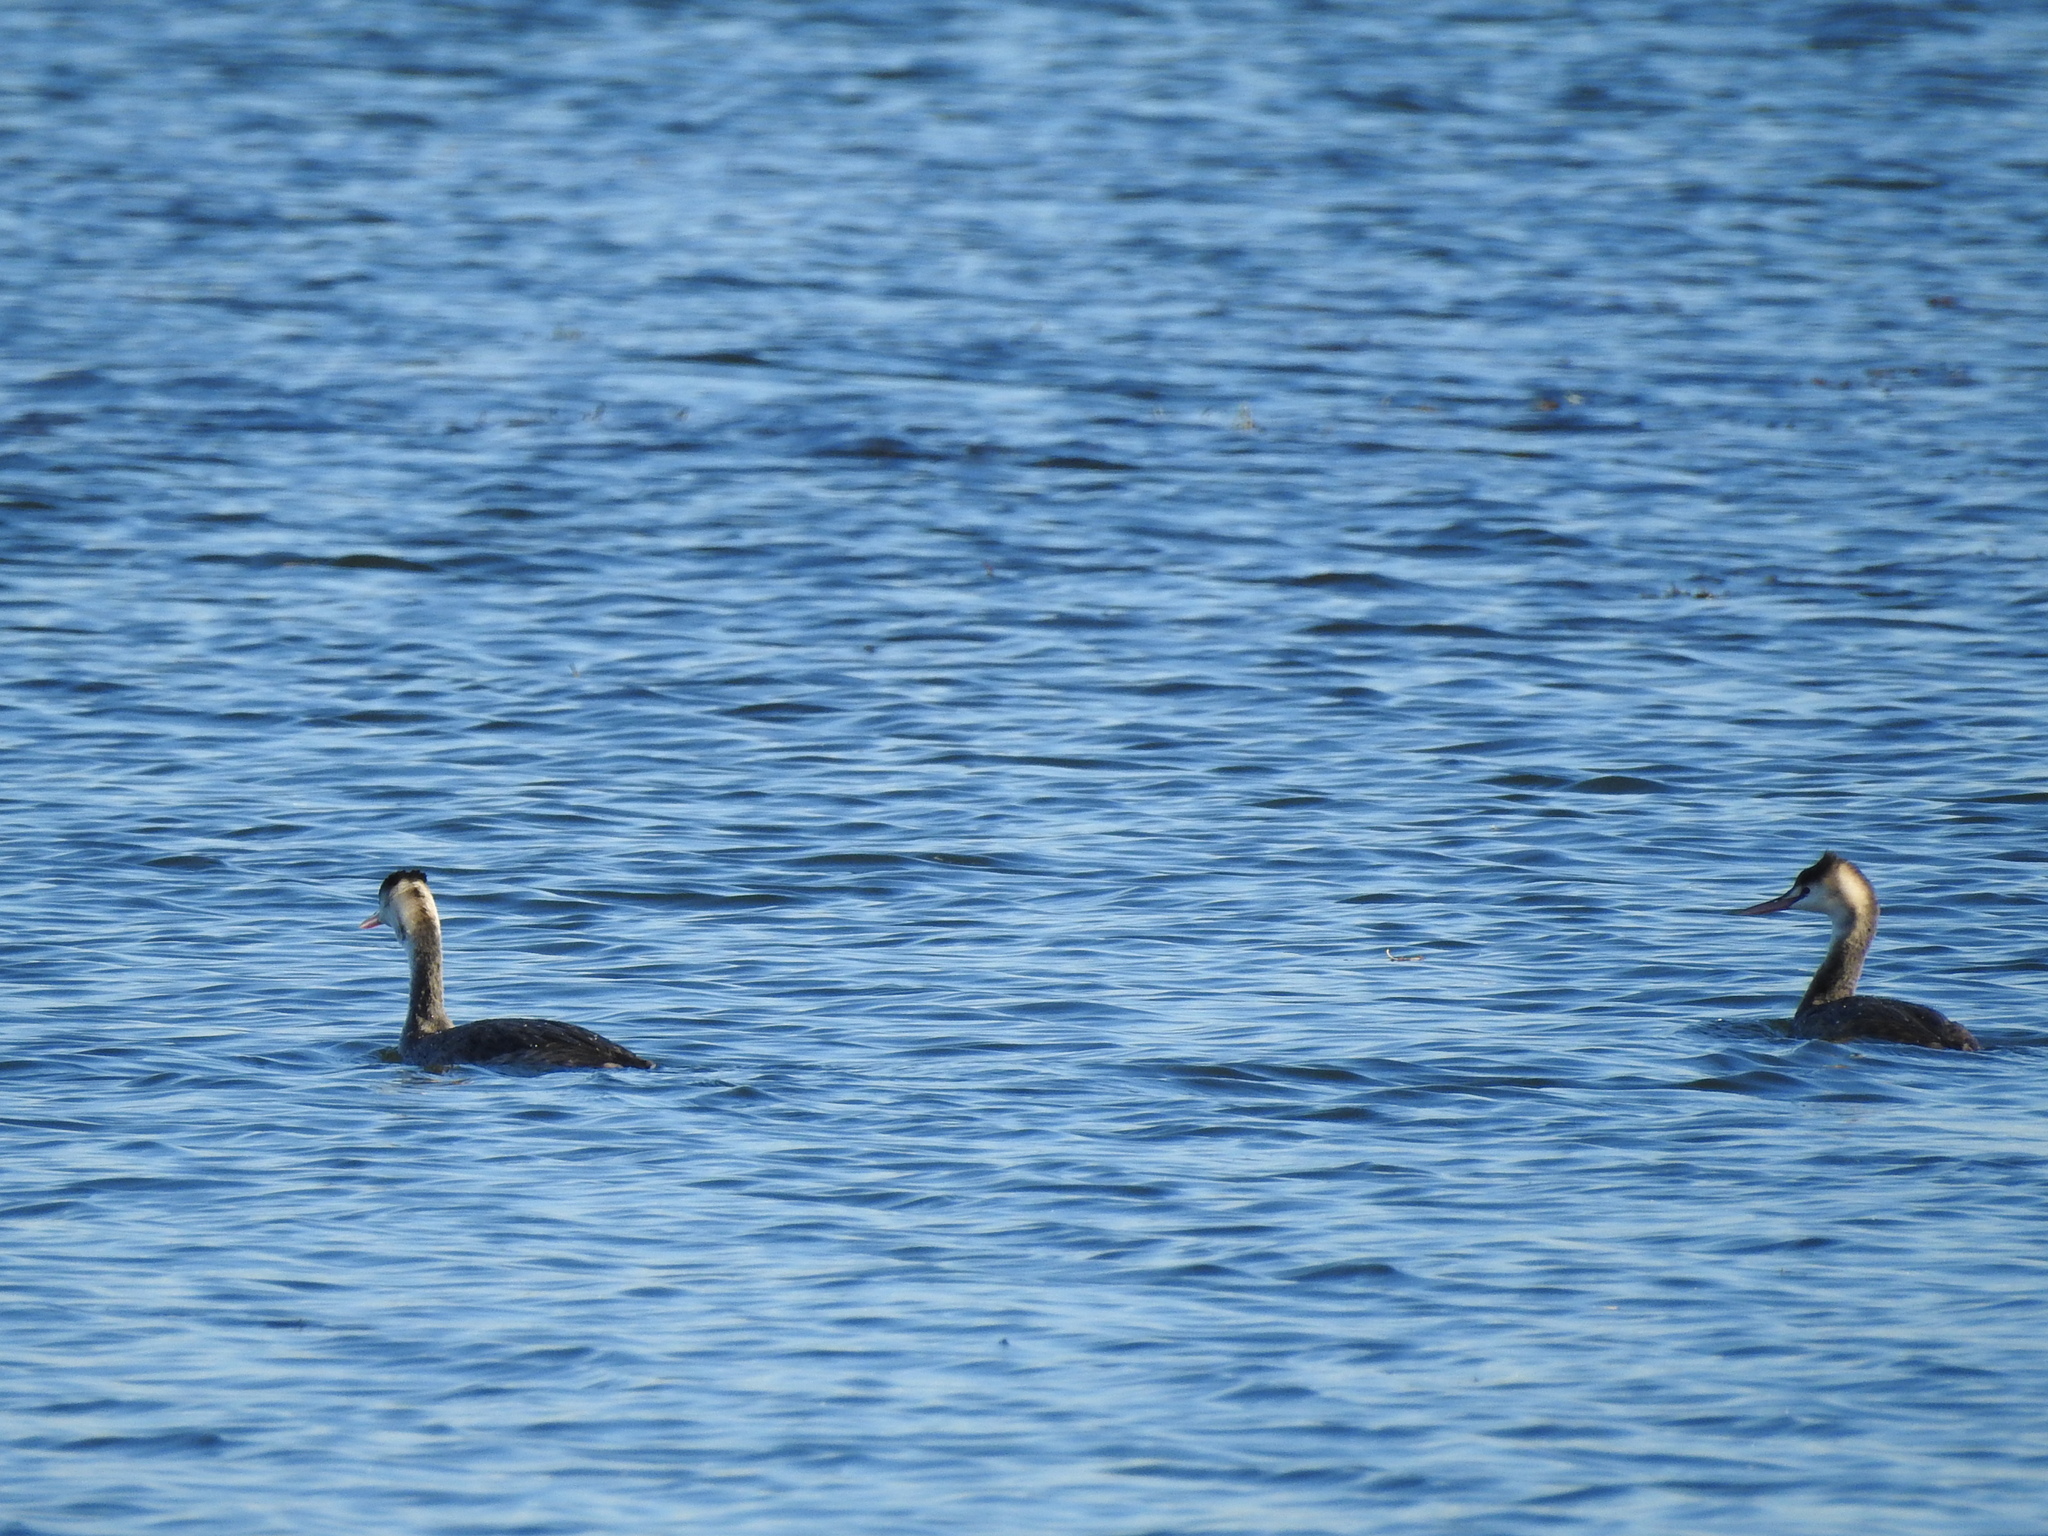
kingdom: Animalia
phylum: Chordata
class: Aves
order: Podicipediformes
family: Podicipedidae
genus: Podiceps
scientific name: Podiceps cristatus
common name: Great crested grebe
